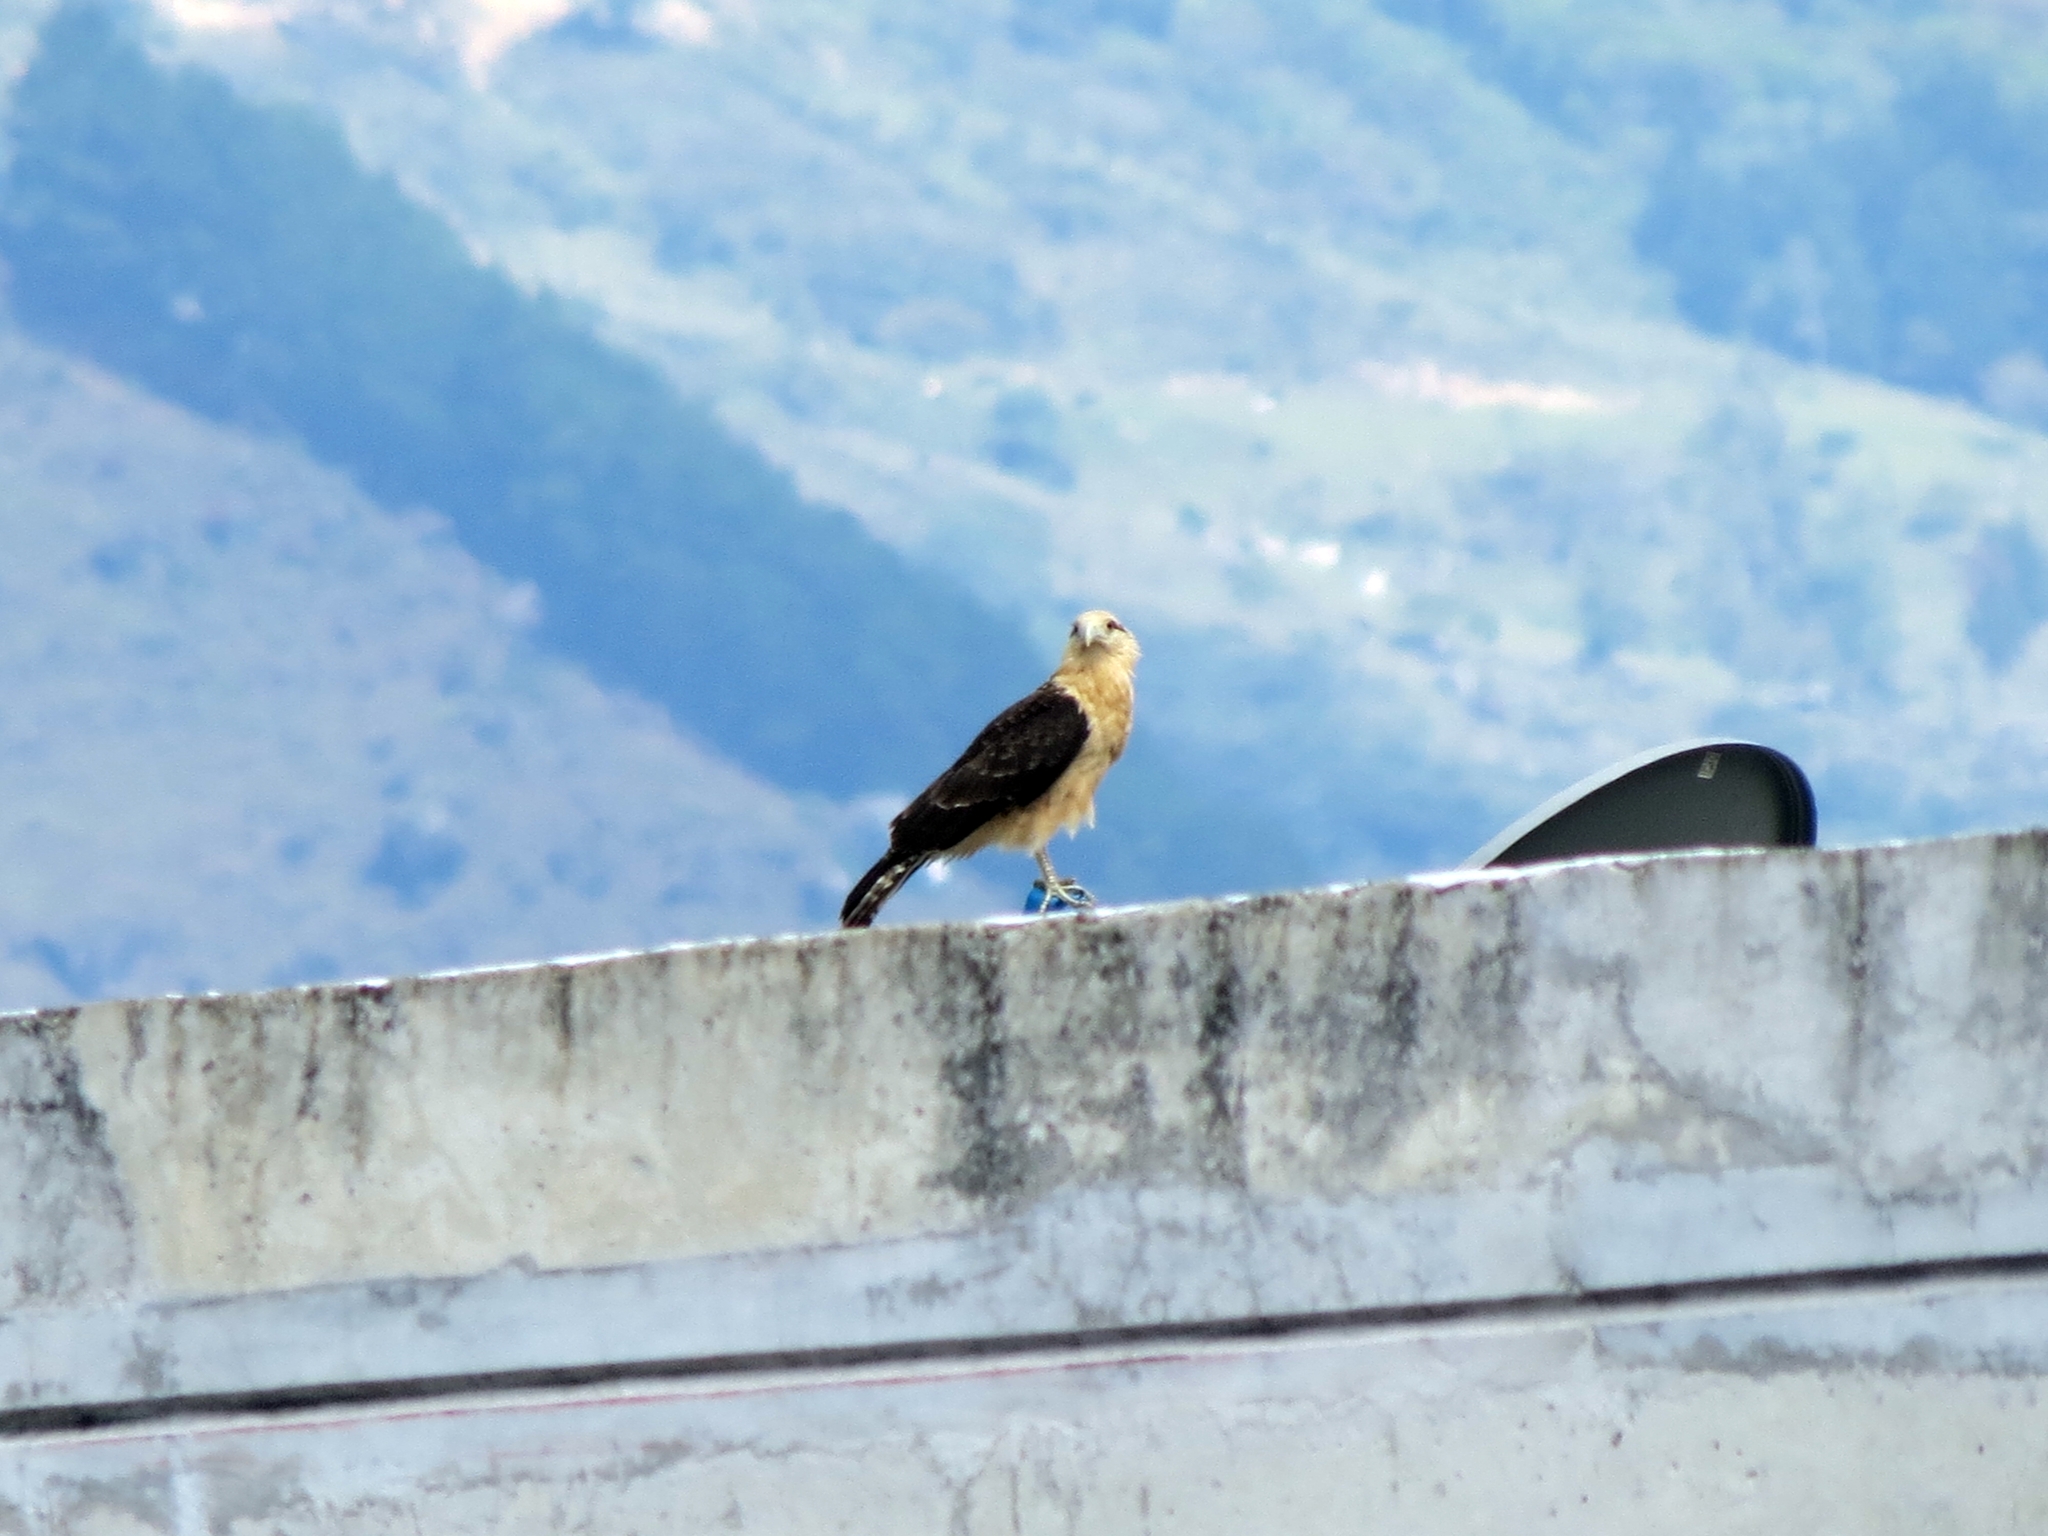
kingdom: Animalia
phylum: Chordata
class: Aves
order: Falconiformes
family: Falconidae
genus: Daptrius
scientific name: Daptrius
